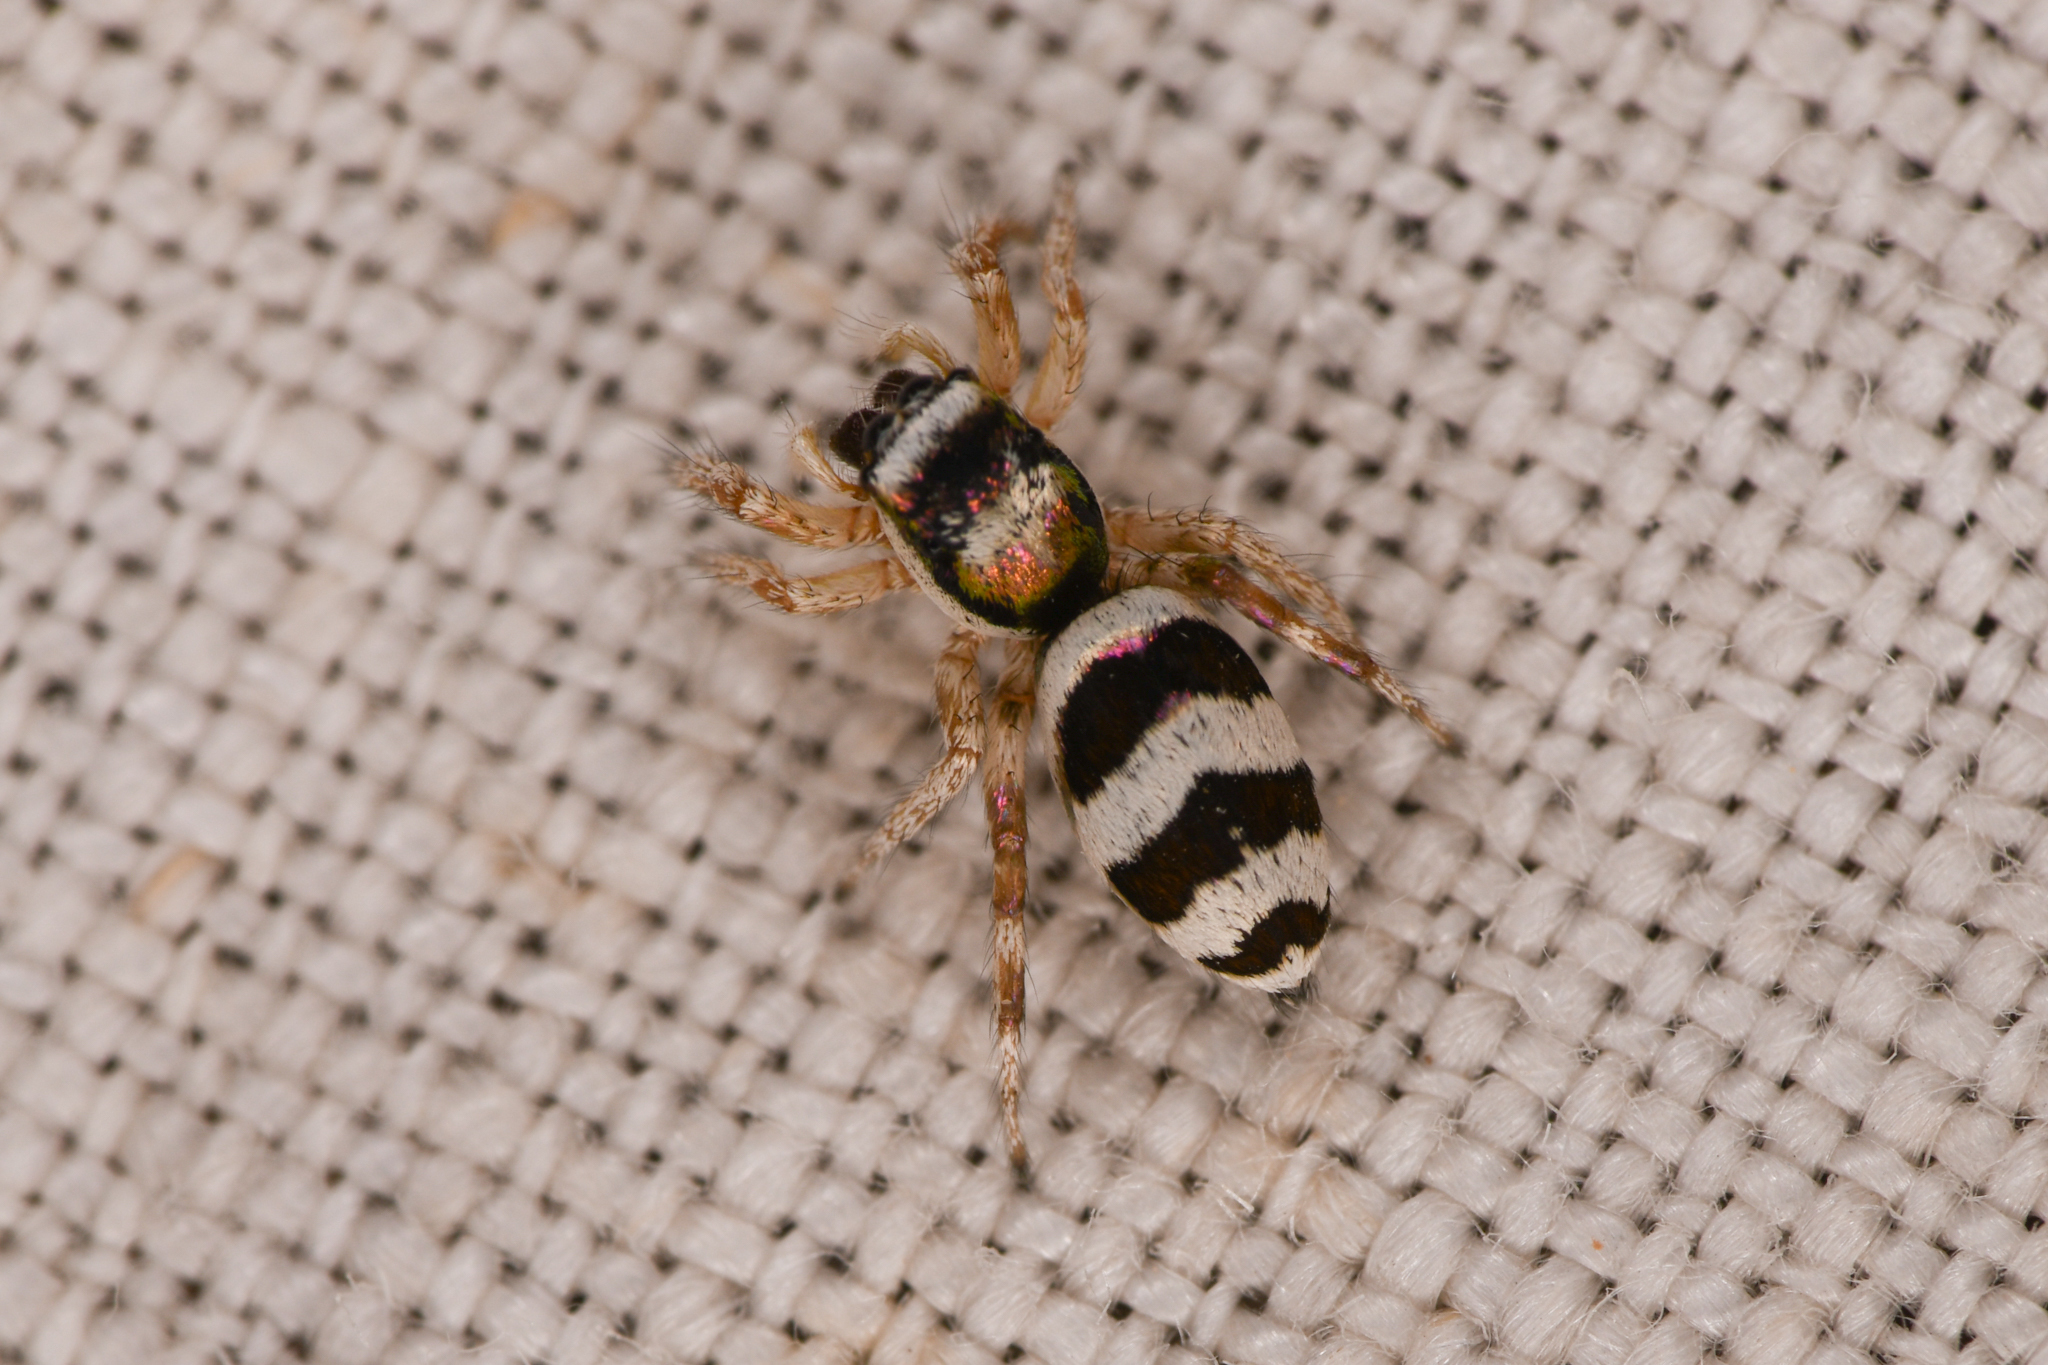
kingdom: Animalia
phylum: Arthropoda
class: Arachnida
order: Araneae
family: Salticidae
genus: Salticus
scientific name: Salticus palpalis
